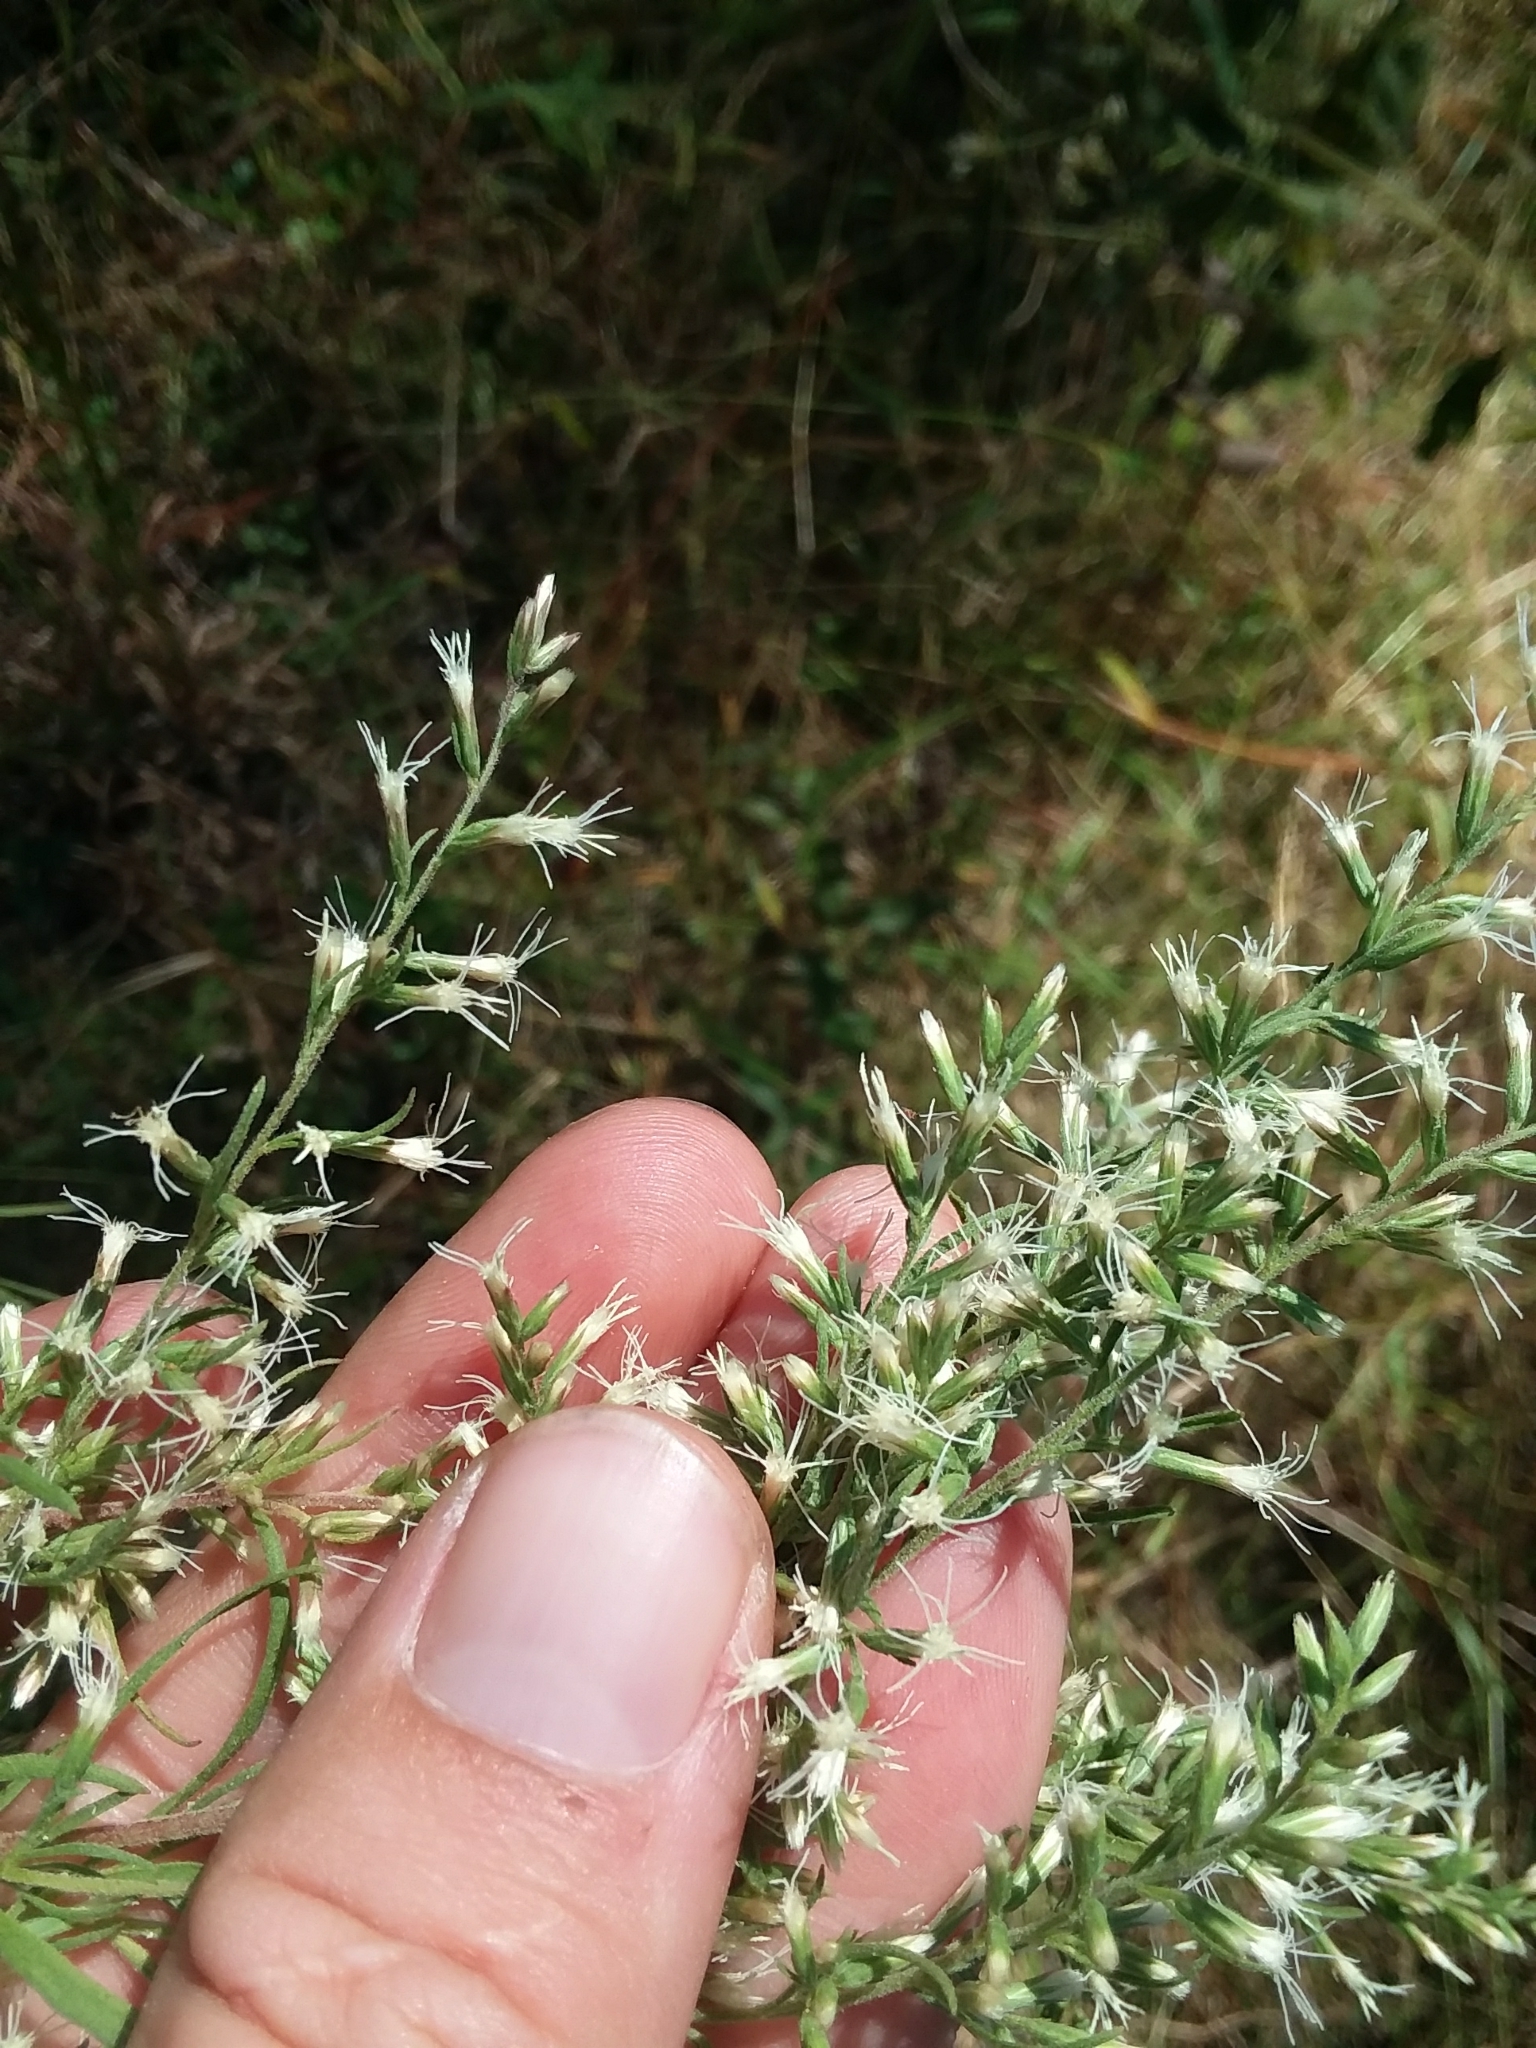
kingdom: Plantae
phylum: Tracheophyta
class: Magnoliopsida
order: Asterales
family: Asteraceae
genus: Eupatorium
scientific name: Eupatorium compositifolium
